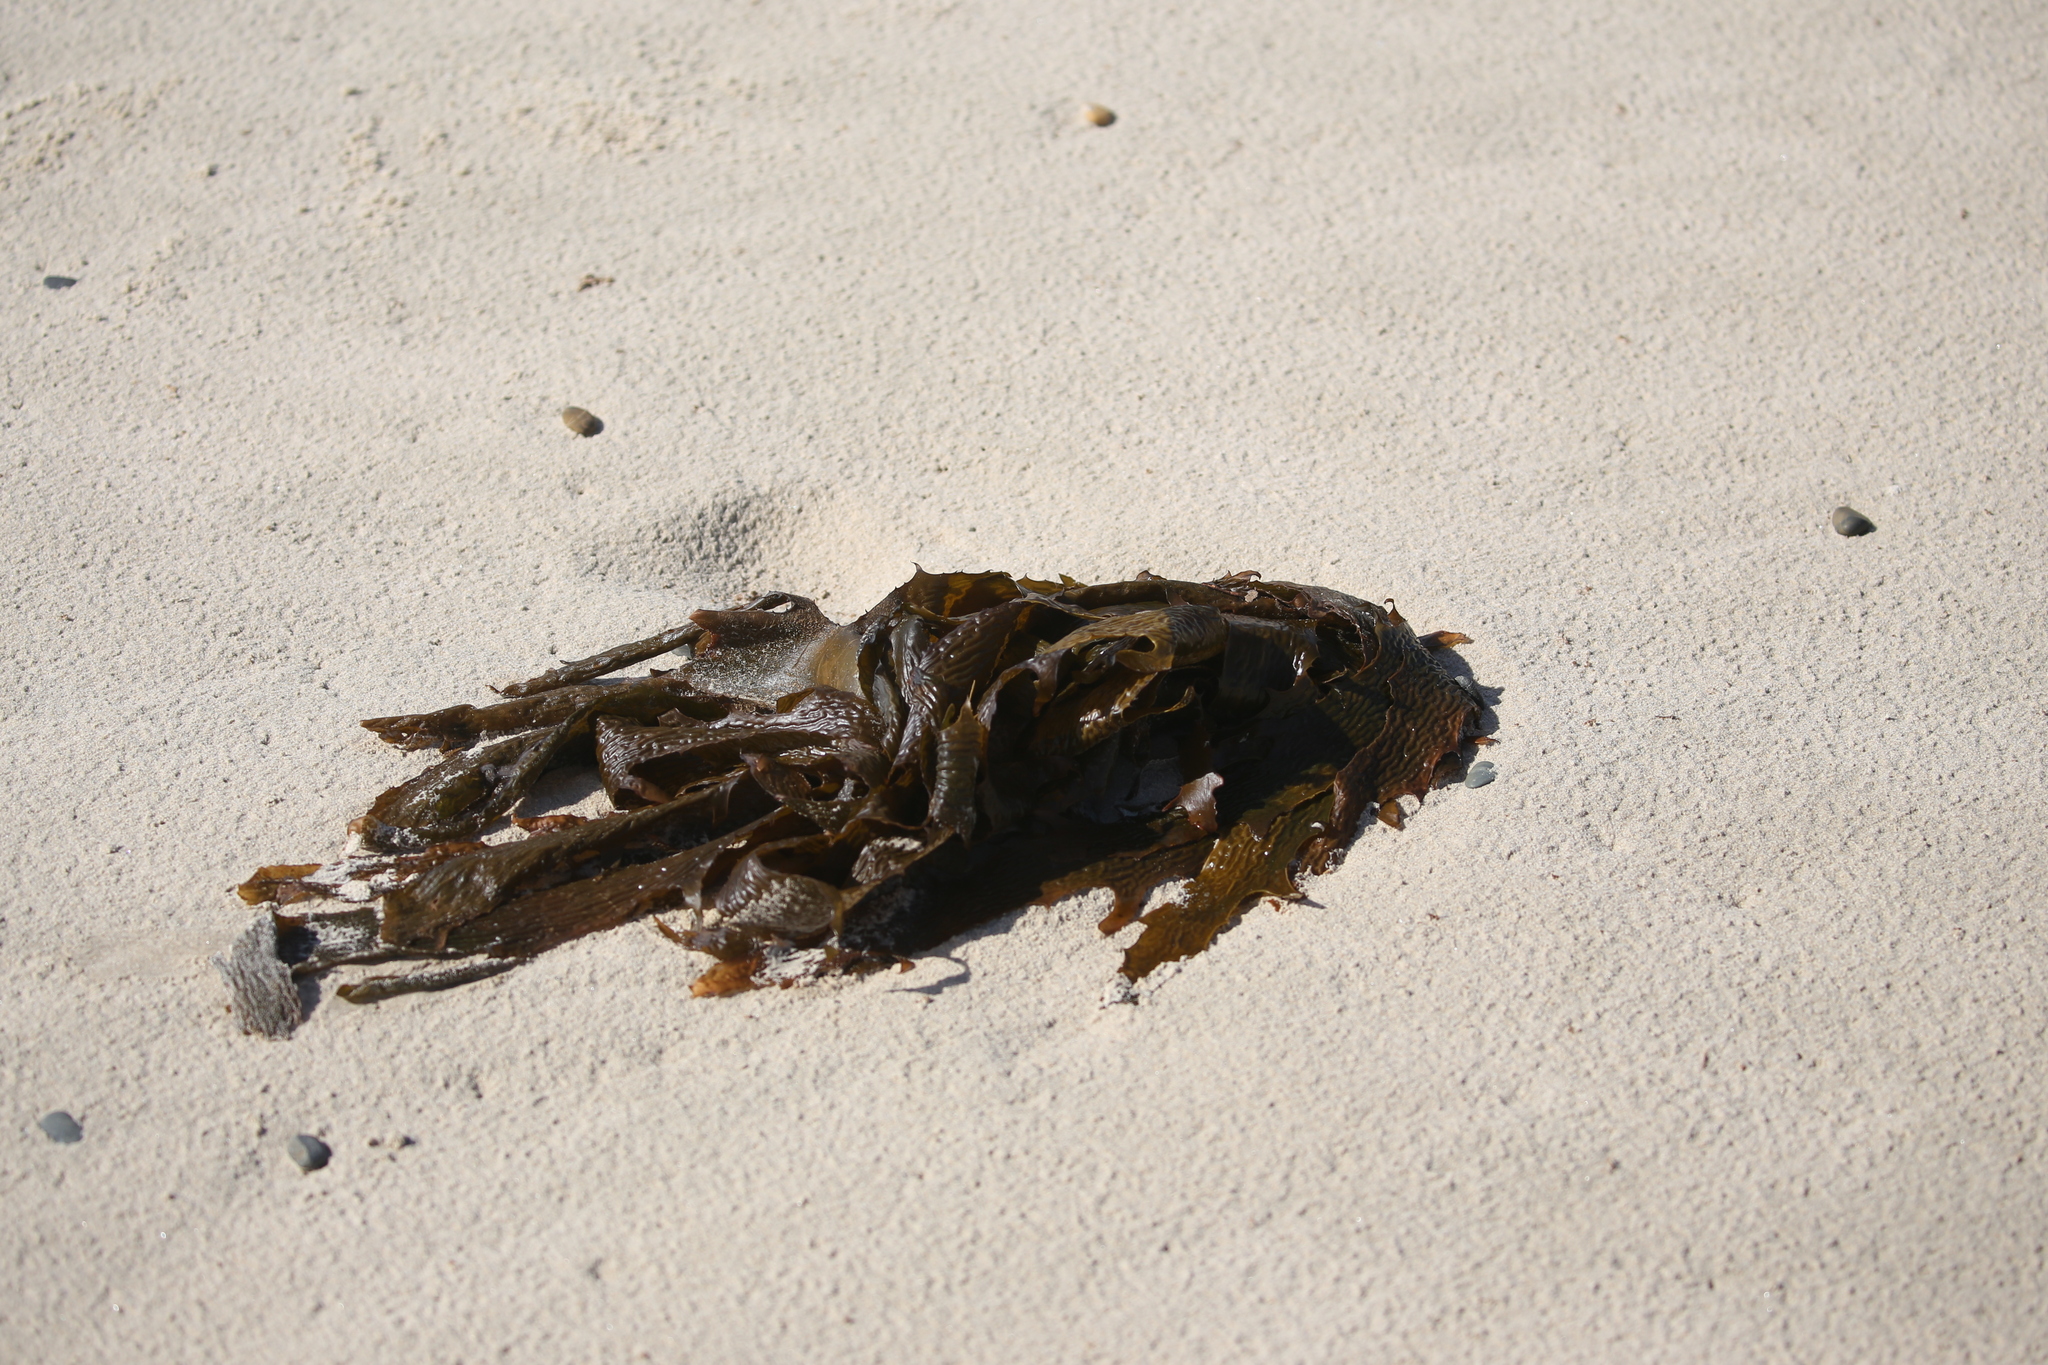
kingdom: Chromista
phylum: Ochrophyta
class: Phaeophyceae
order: Laminariales
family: Lessoniaceae
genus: Ecklonia
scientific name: Ecklonia radiata
